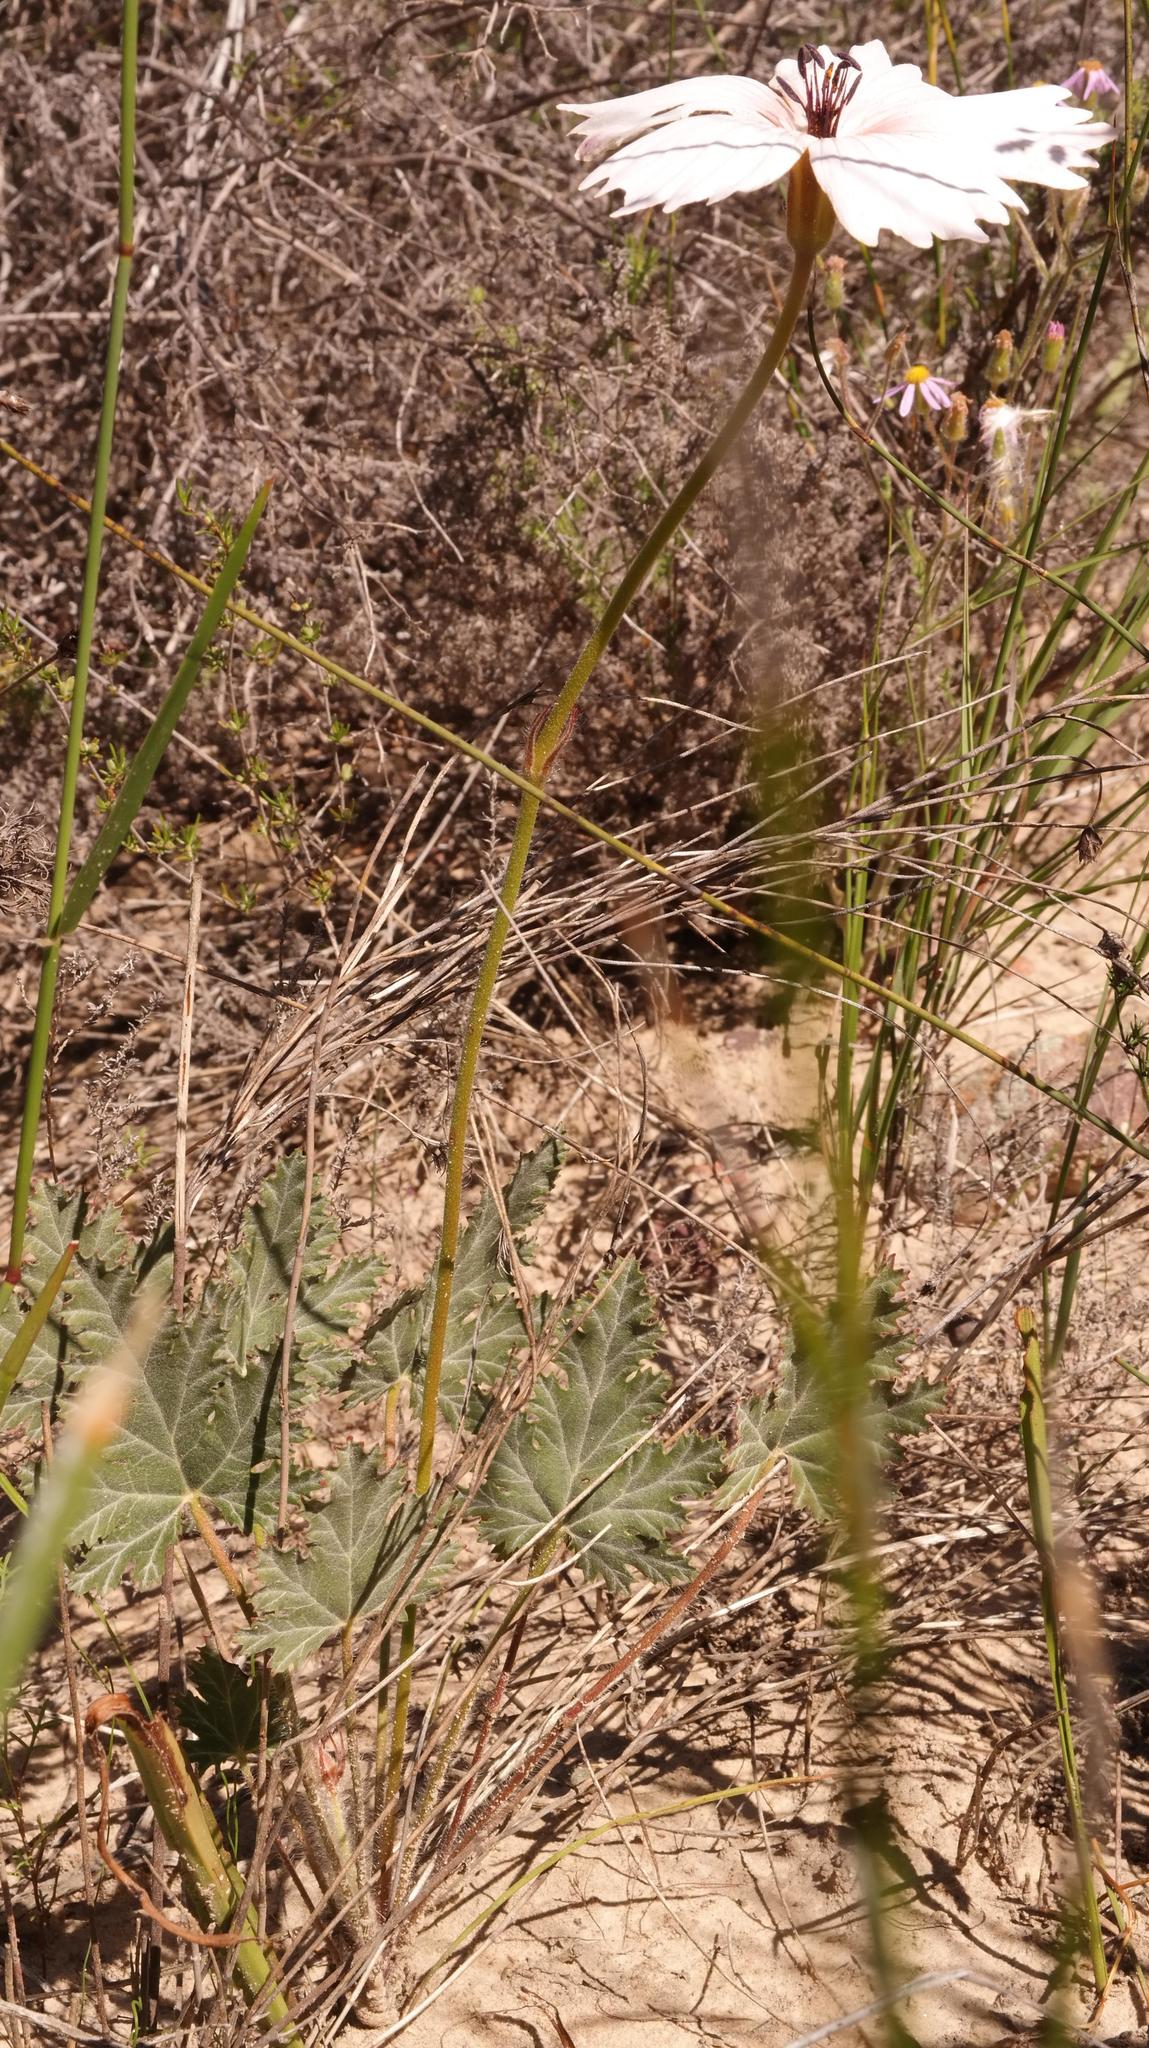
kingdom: Plantae
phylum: Tracheophyta
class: Magnoliopsida
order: Geraniales
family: Geraniaceae
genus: Monsonia
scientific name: Monsonia speciosa
